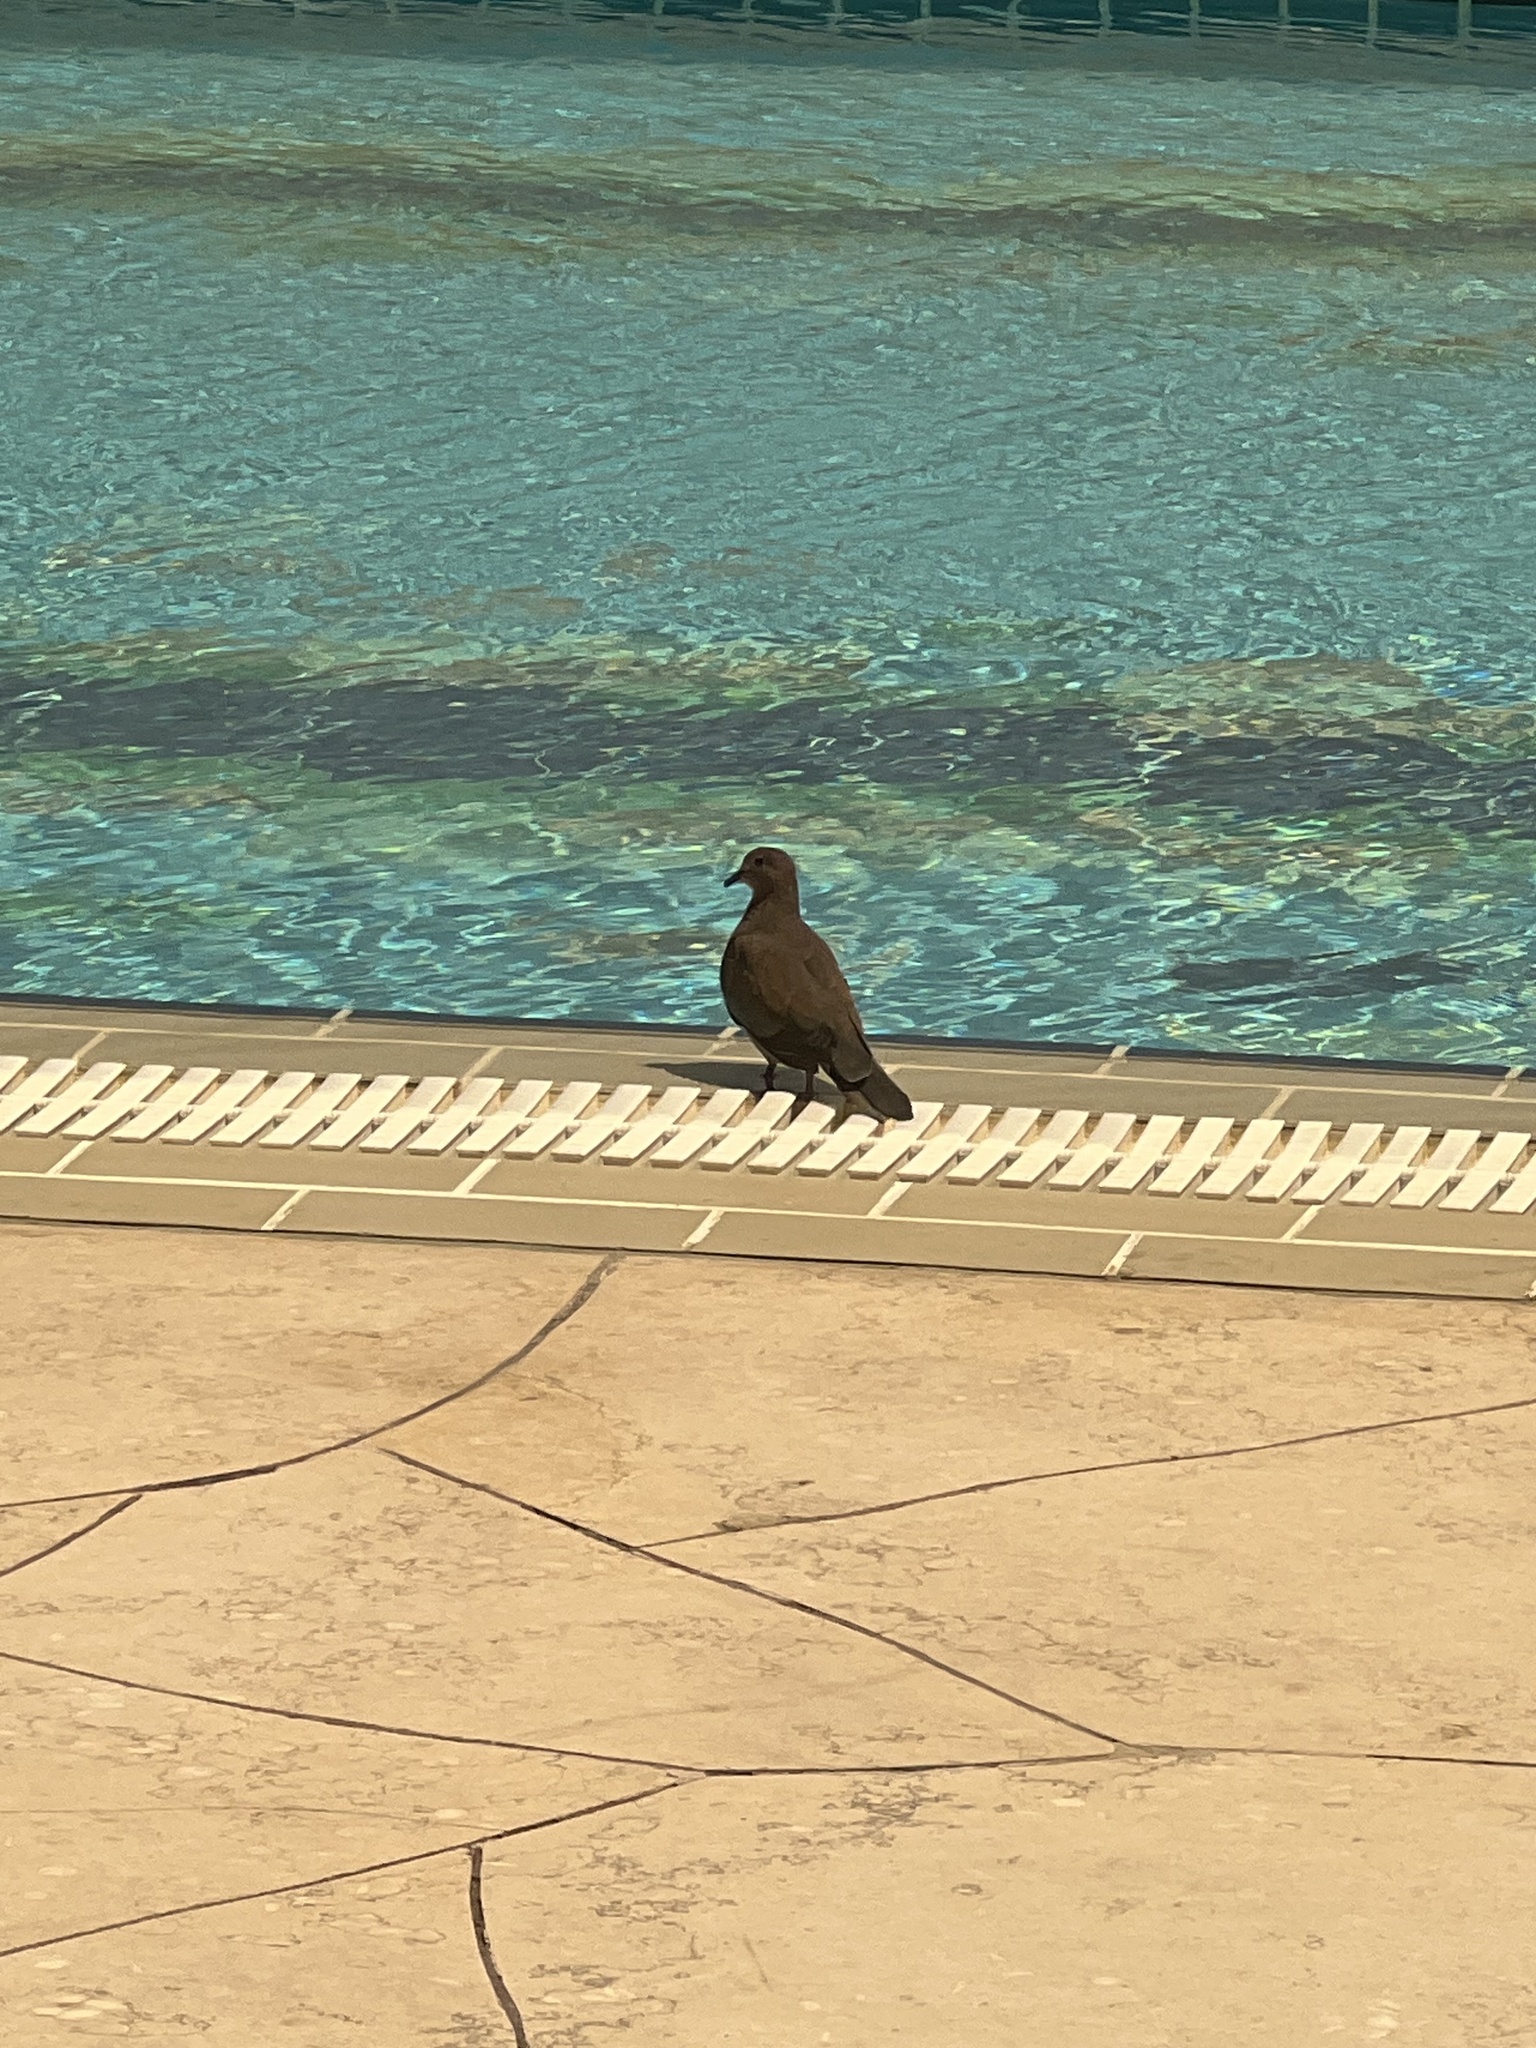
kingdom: Animalia
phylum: Chordata
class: Aves
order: Columbiformes
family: Columbidae
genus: Spilopelia
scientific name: Spilopelia senegalensis
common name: Laughing dove
